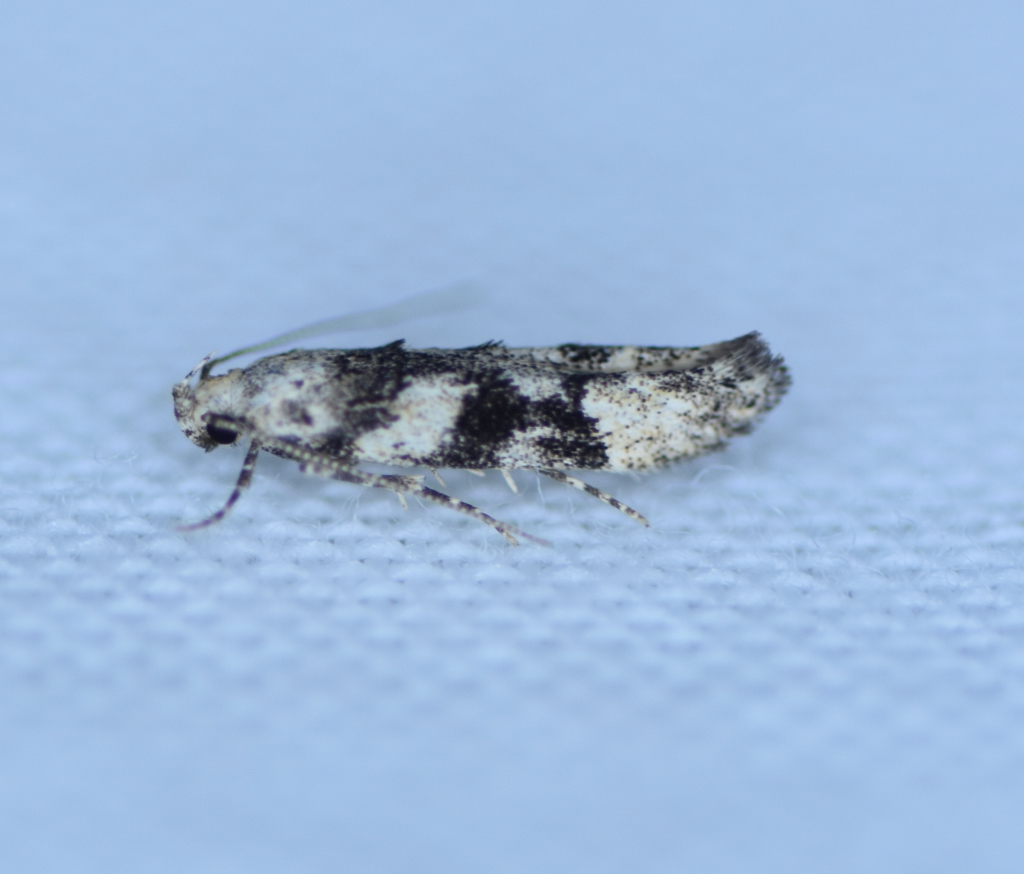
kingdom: Animalia
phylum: Arthropoda
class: Insecta
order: Lepidoptera
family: Gelechiidae
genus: Coleotechnites
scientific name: Coleotechnites atrupictella
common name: Spruce micromoth
